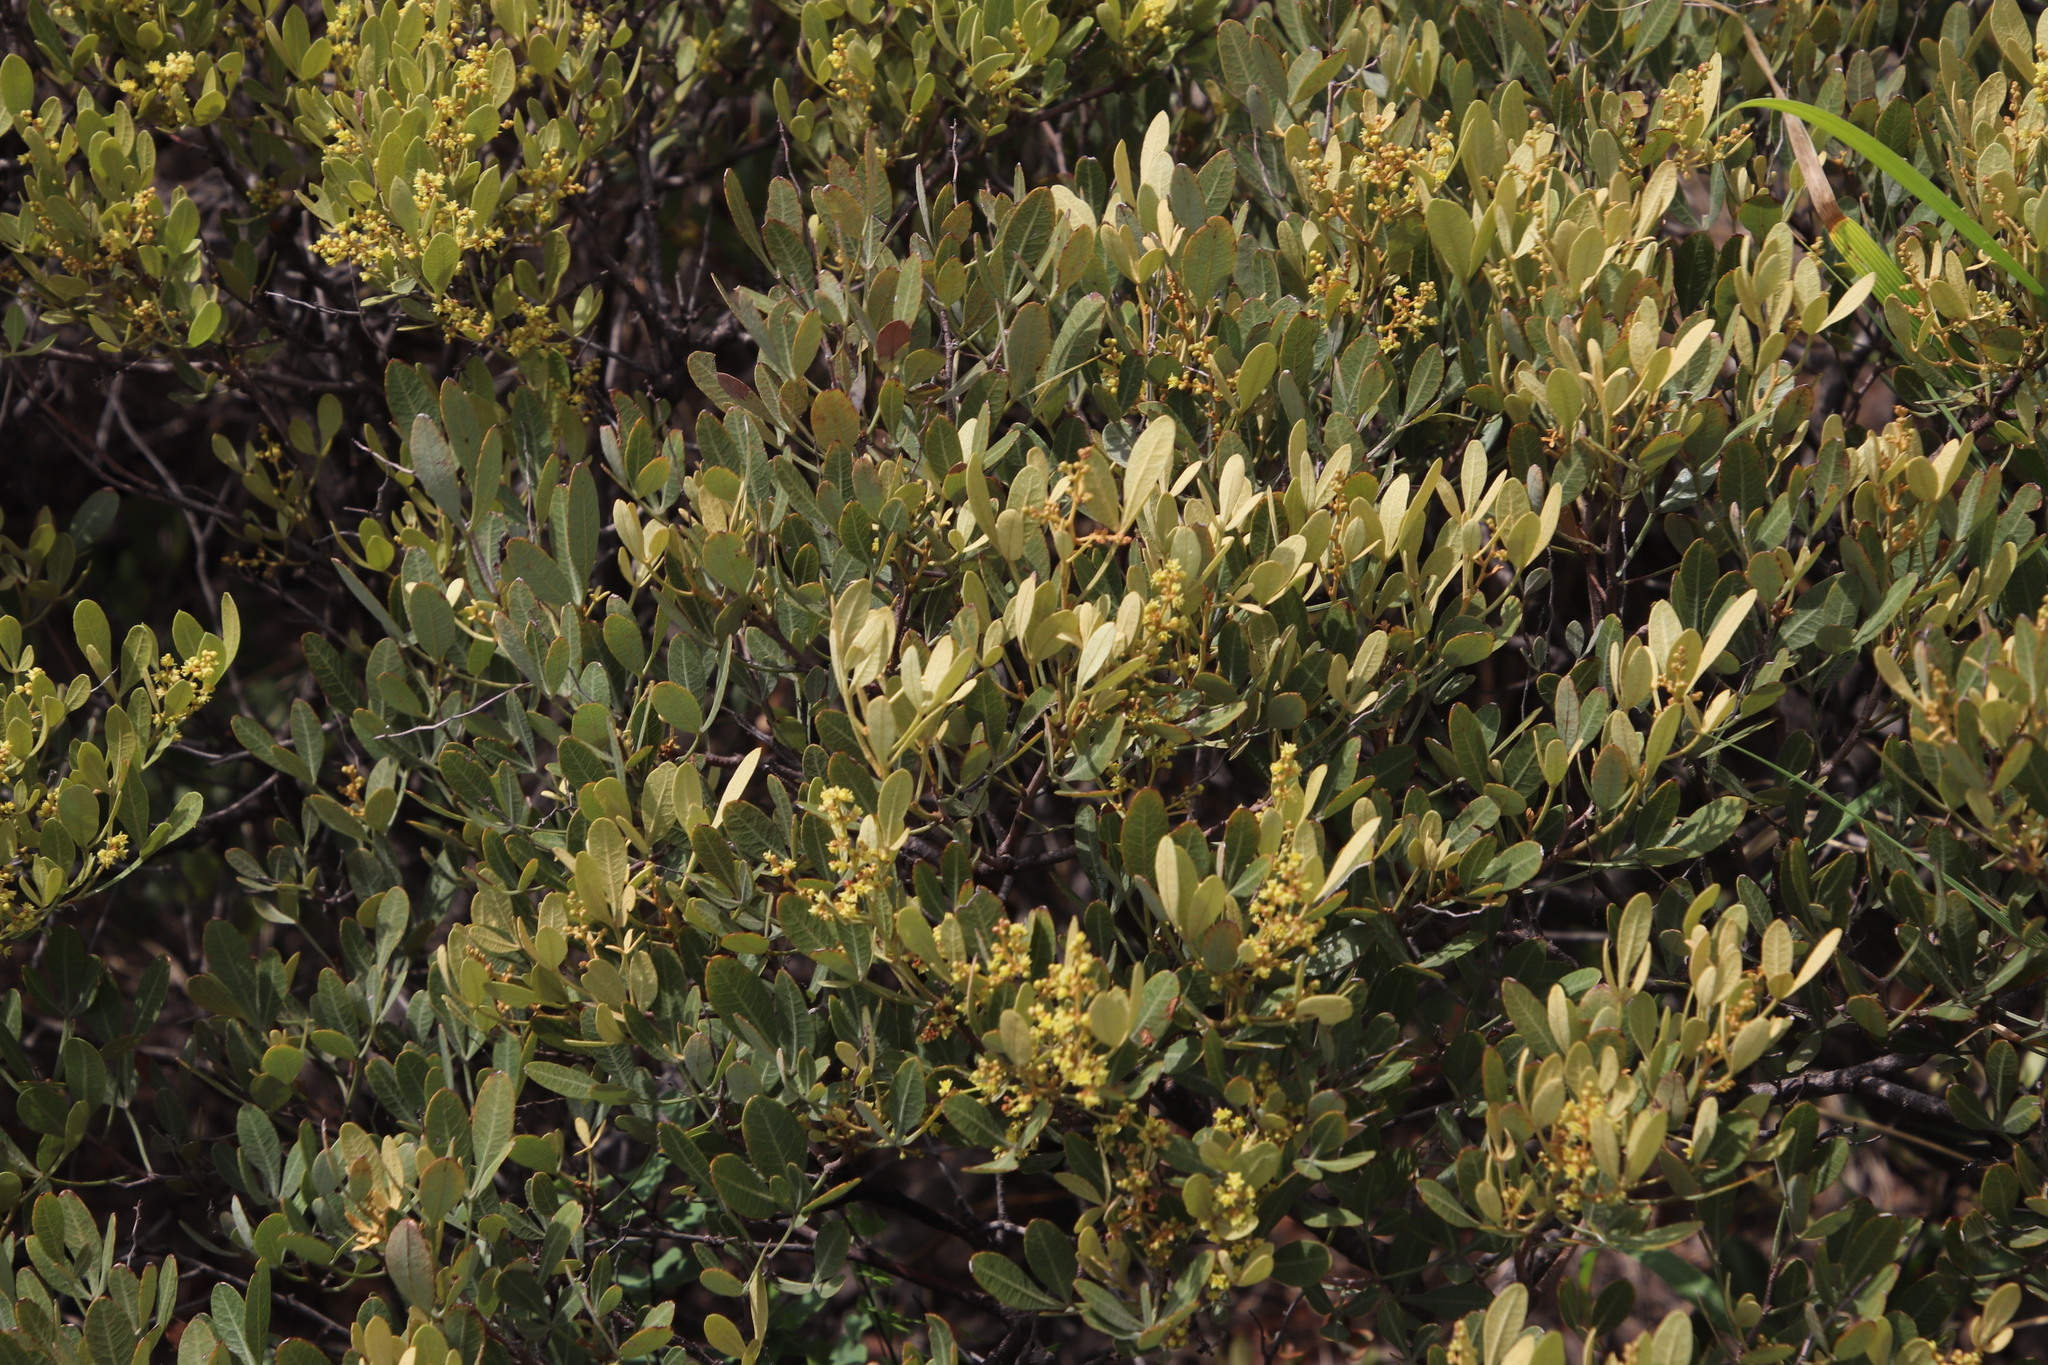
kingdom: Plantae
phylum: Tracheophyta
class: Magnoliopsida
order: Sapindales
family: Anacardiaceae
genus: Searsia
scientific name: Searsia magalismontana
